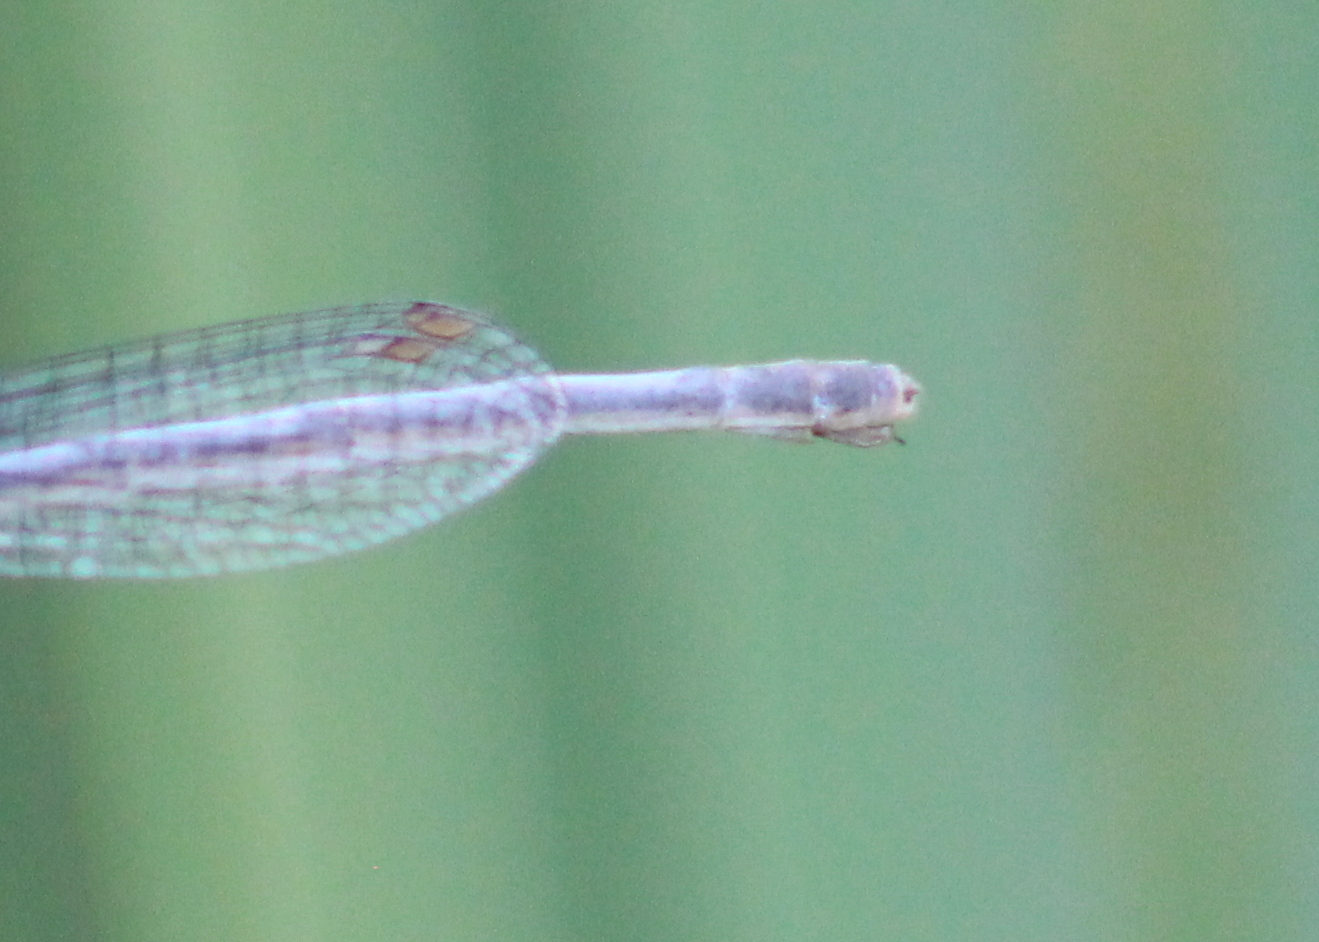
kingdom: Animalia
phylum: Arthropoda
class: Insecta
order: Odonata
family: Coenagrionidae
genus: Ischnura
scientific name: Ischnura verticalis
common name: Eastern forktail
